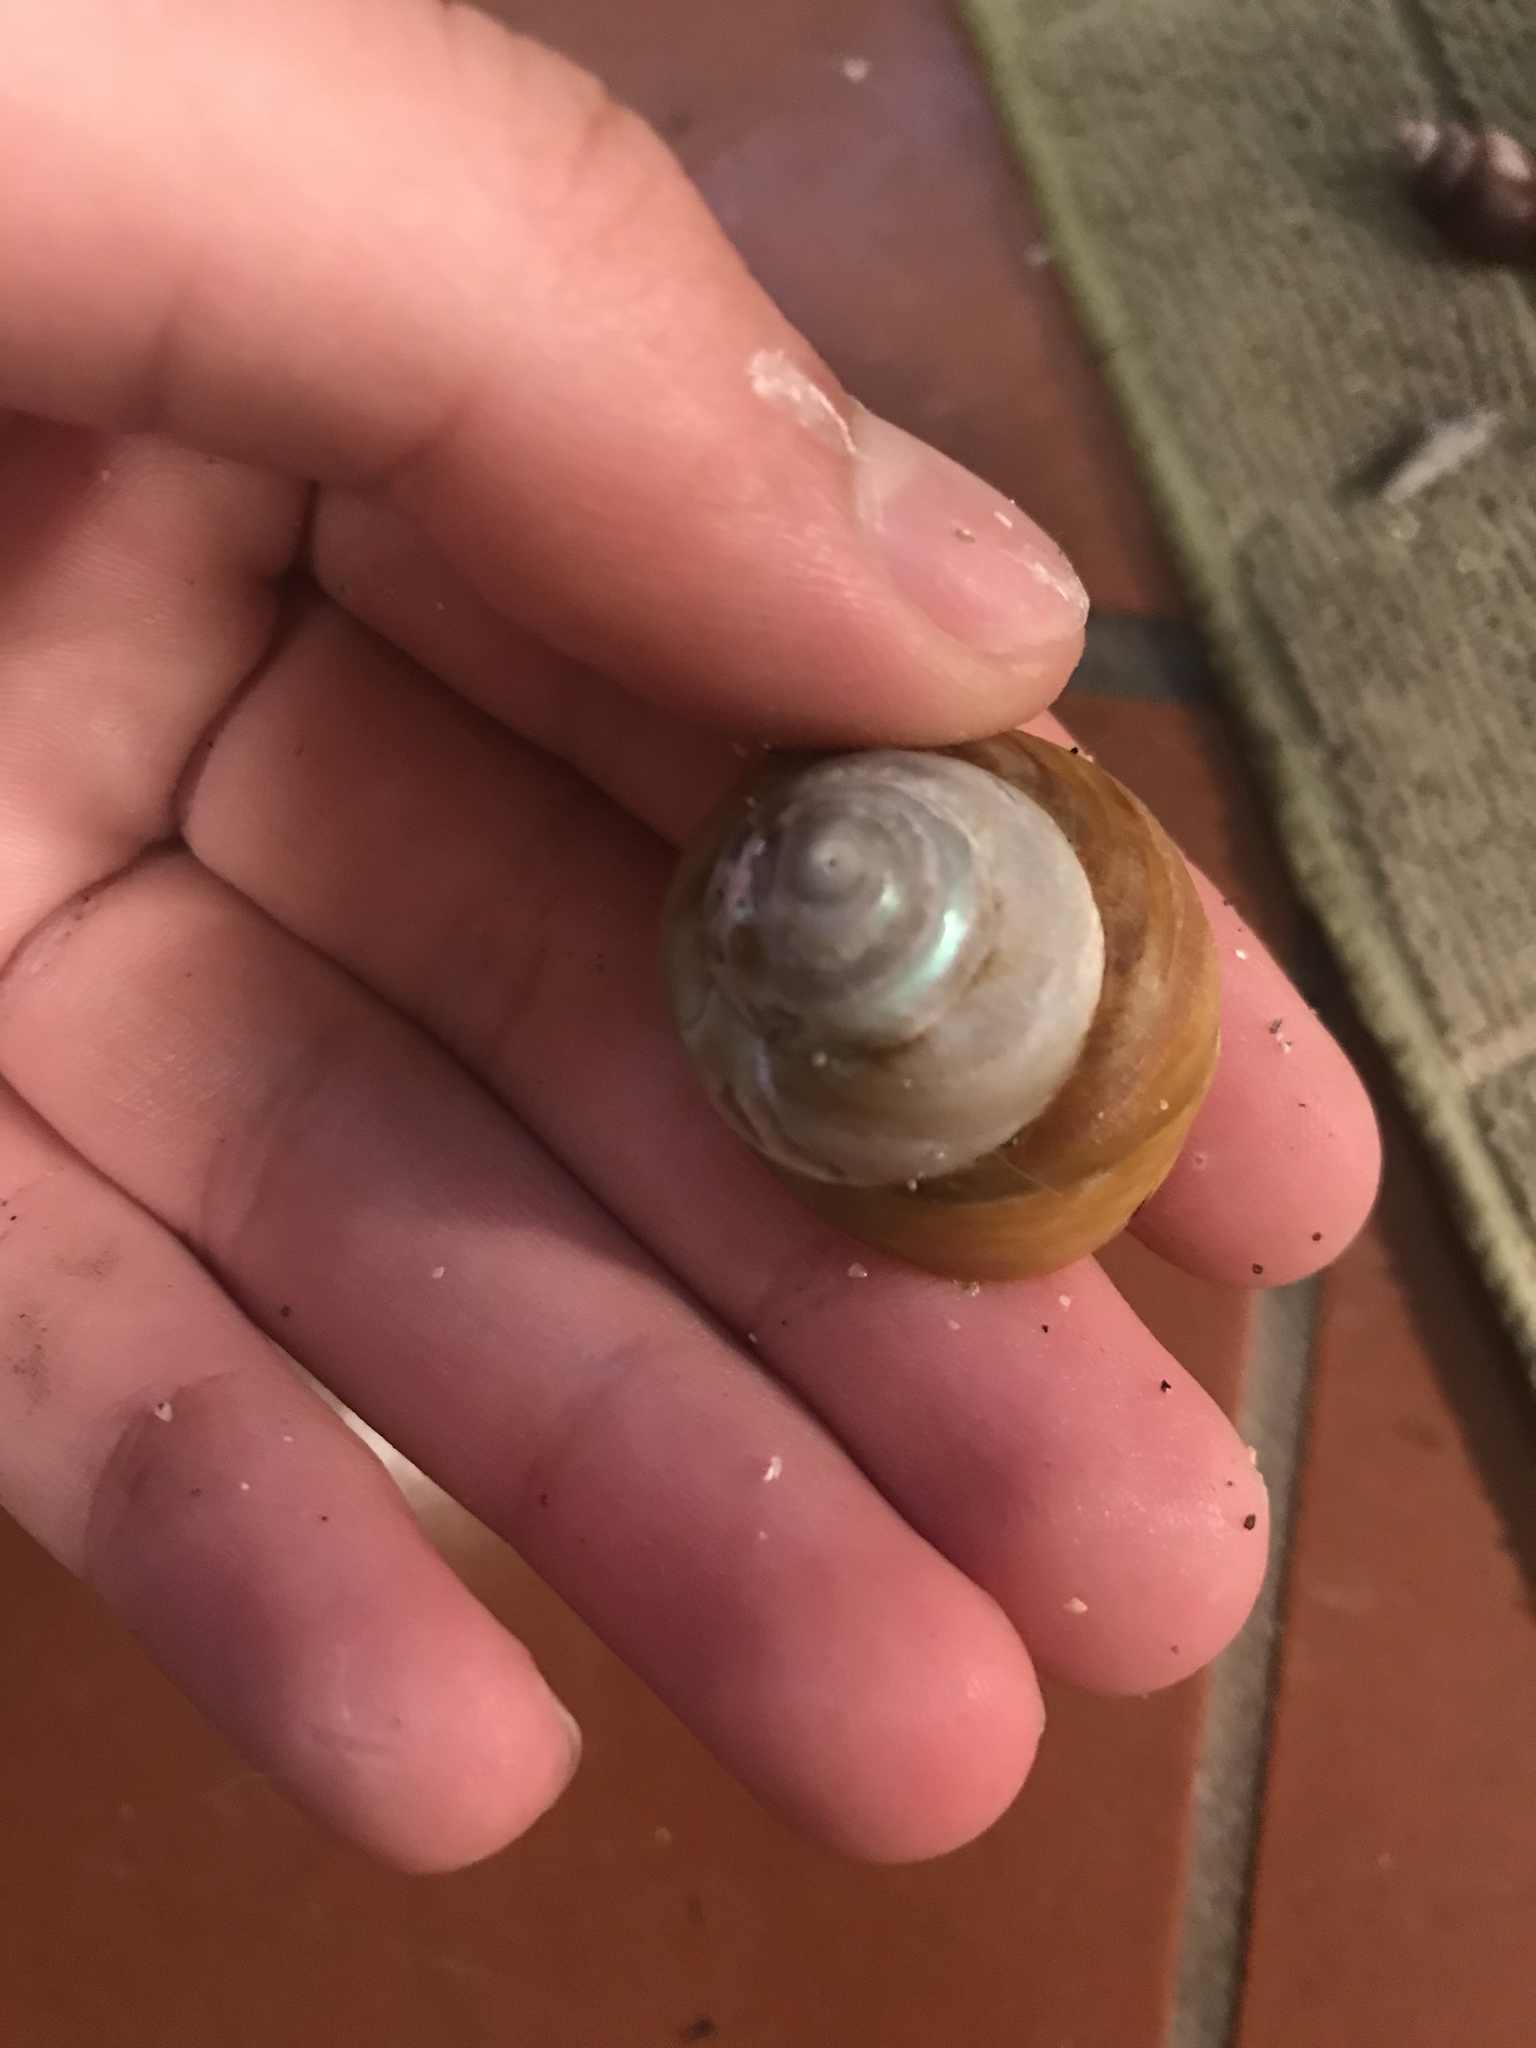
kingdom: Animalia
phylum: Mollusca
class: Gastropoda
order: Trochida
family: Tegulidae
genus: Tegula
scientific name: Tegula brunnea
